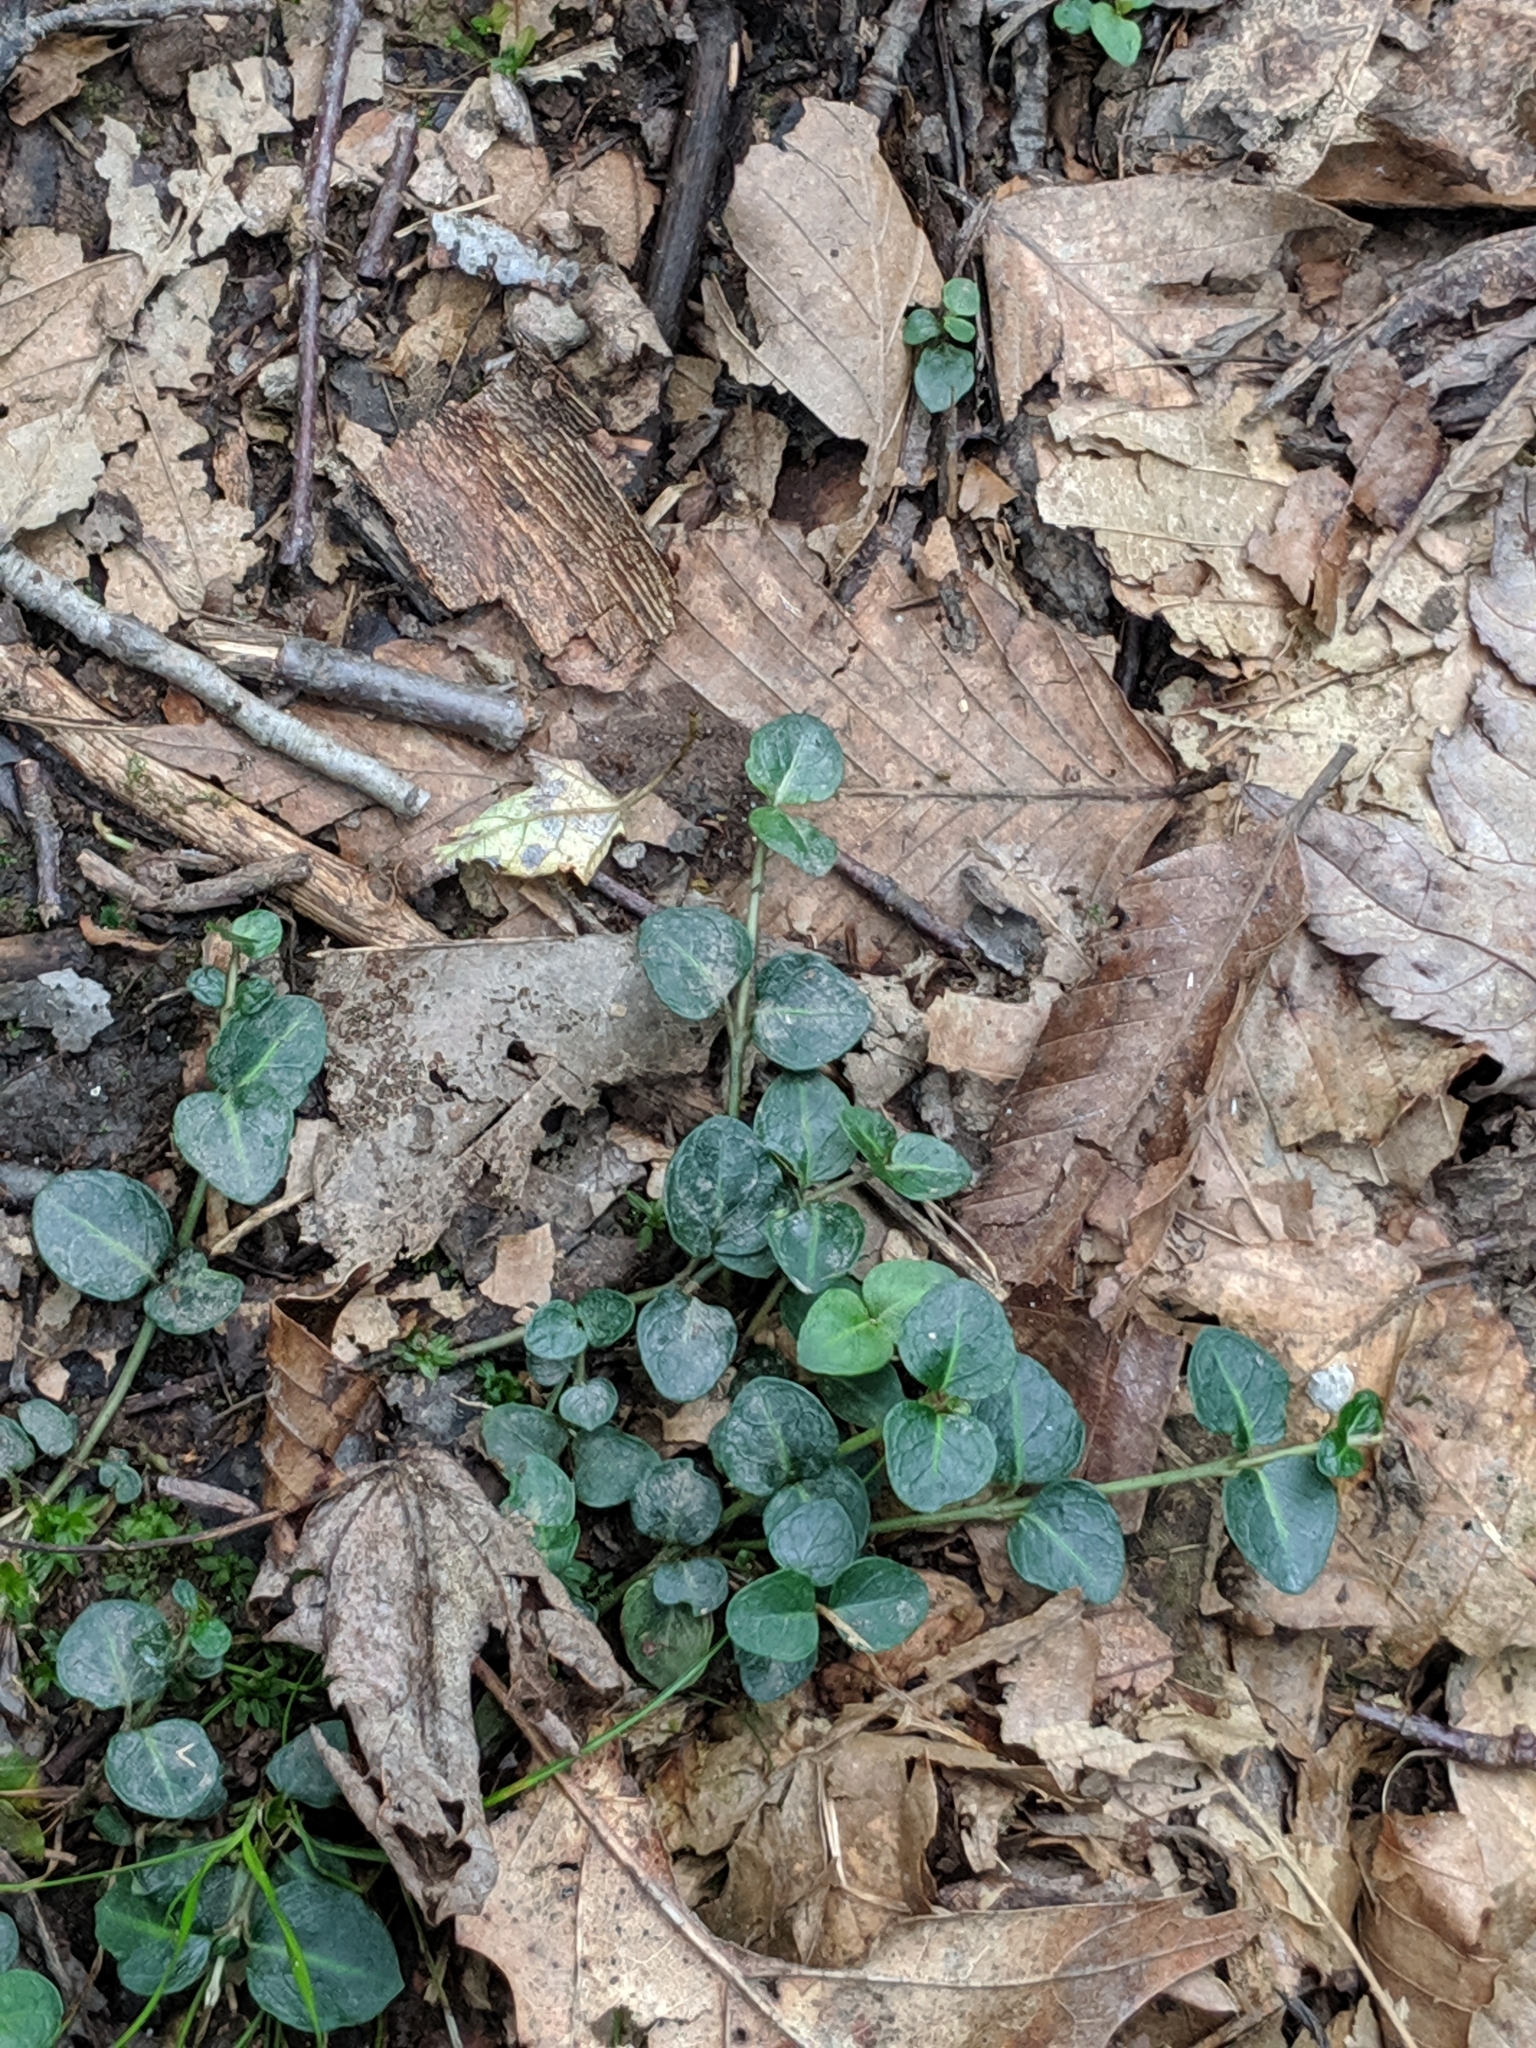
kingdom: Plantae
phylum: Tracheophyta
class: Magnoliopsida
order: Gentianales
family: Rubiaceae
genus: Mitchella
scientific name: Mitchella repens
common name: Partridge-berry
